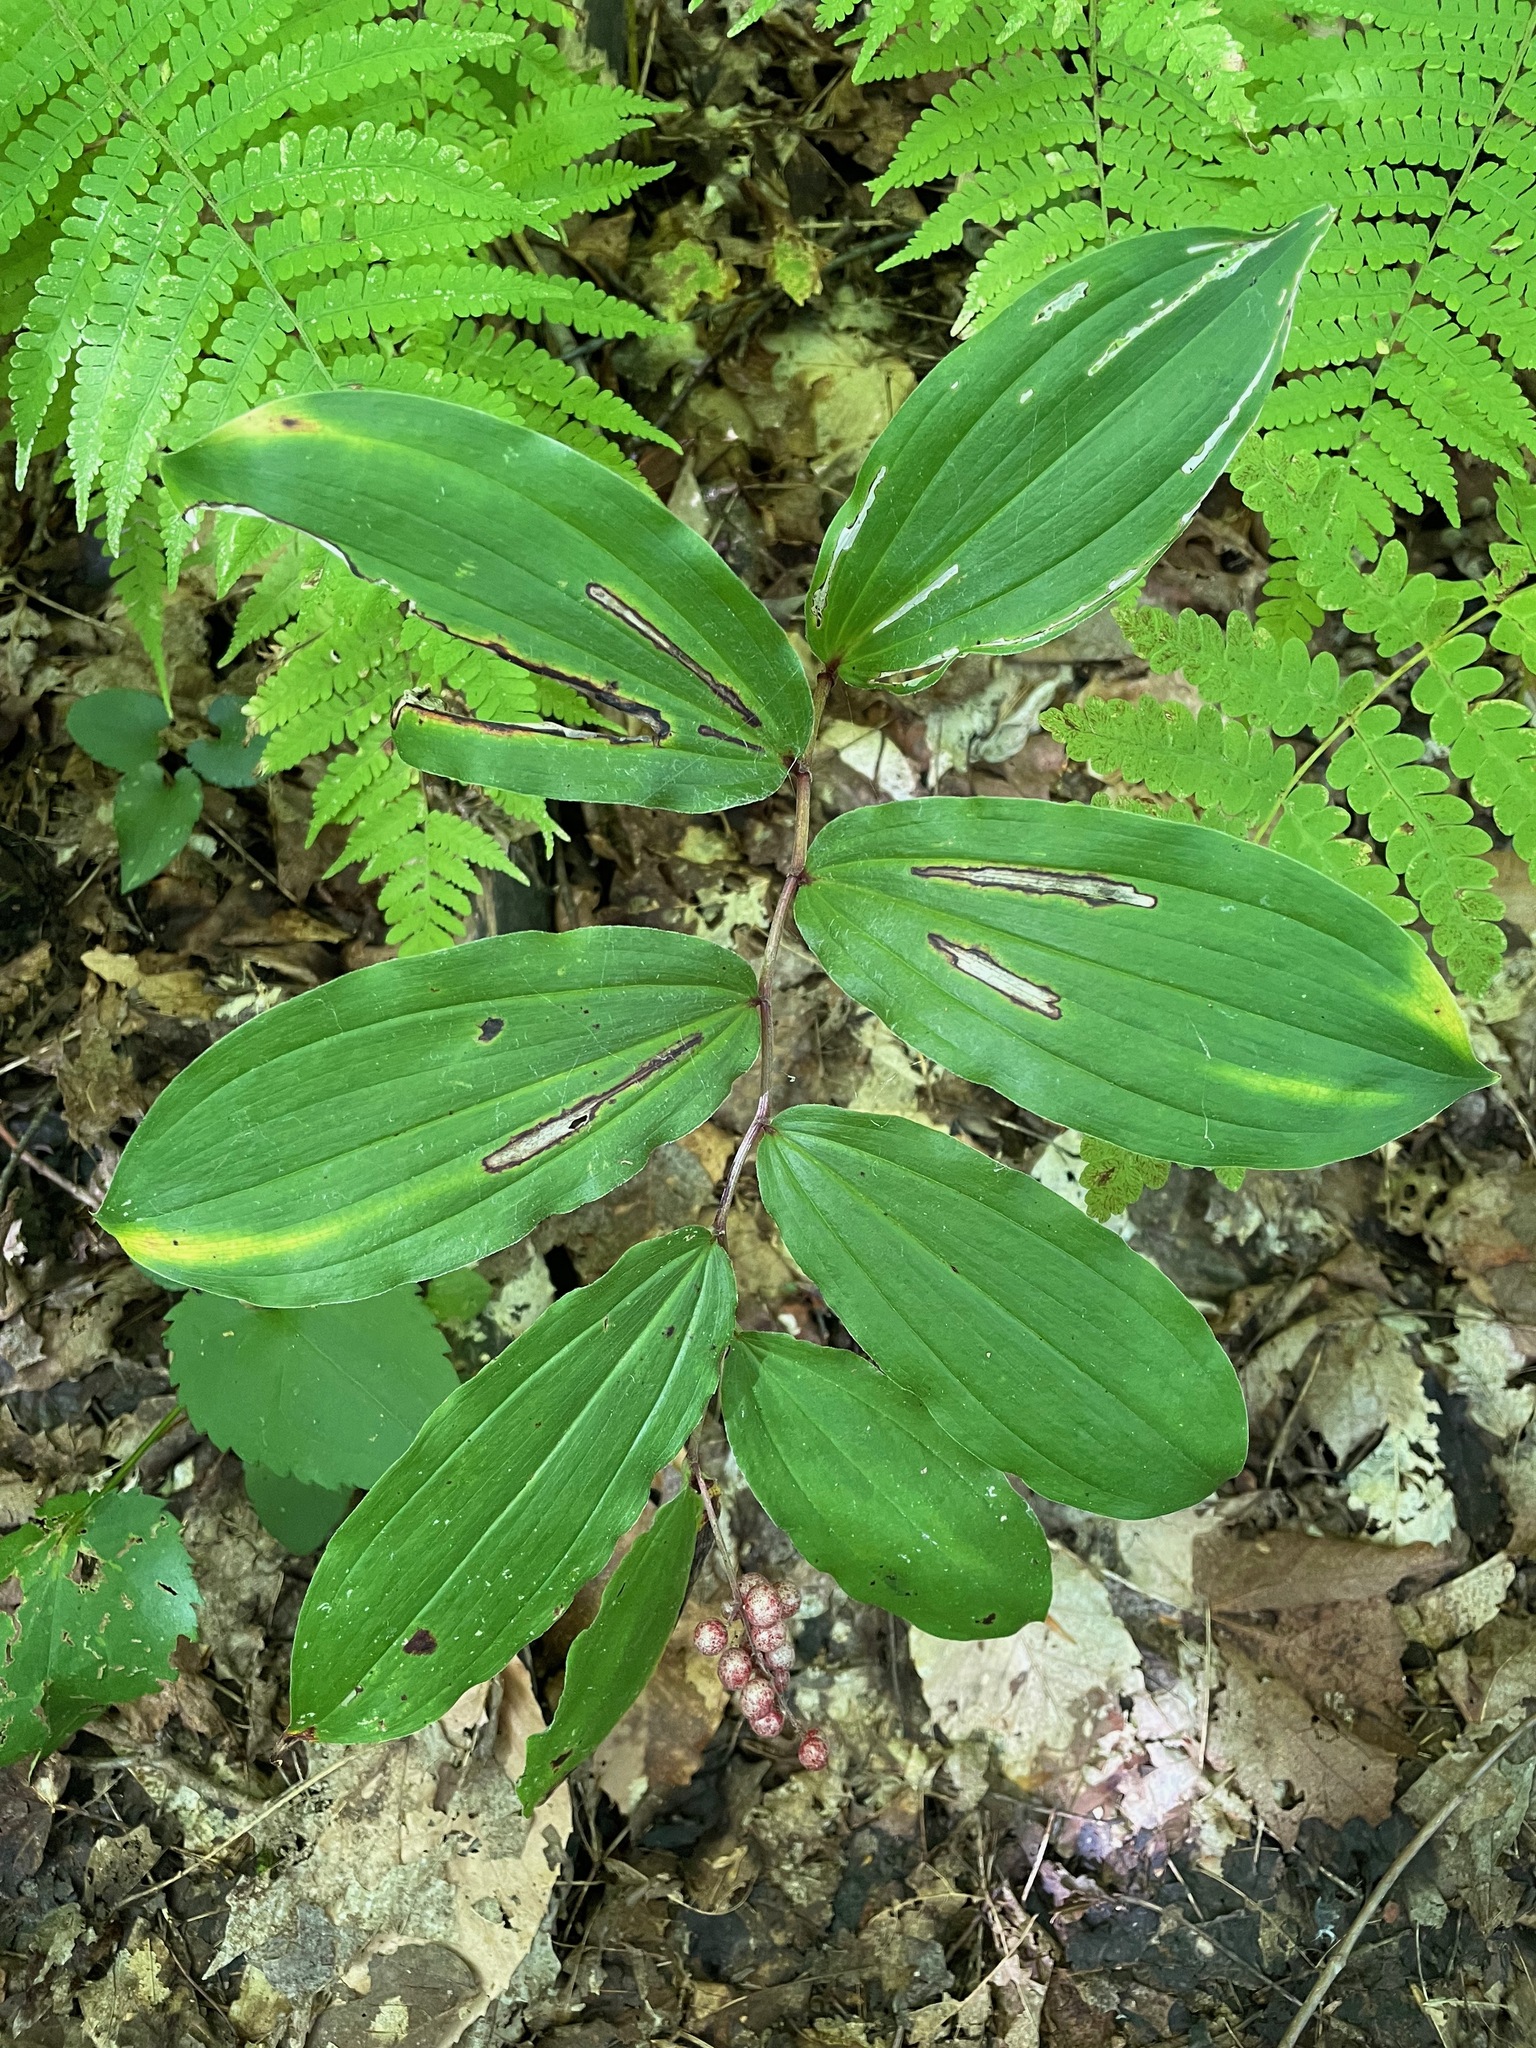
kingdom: Plantae
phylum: Tracheophyta
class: Liliopsida
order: Asparagales
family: Asparagaceae
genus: Maianthemum
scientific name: Maianthemum racemosum
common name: False spikenard
